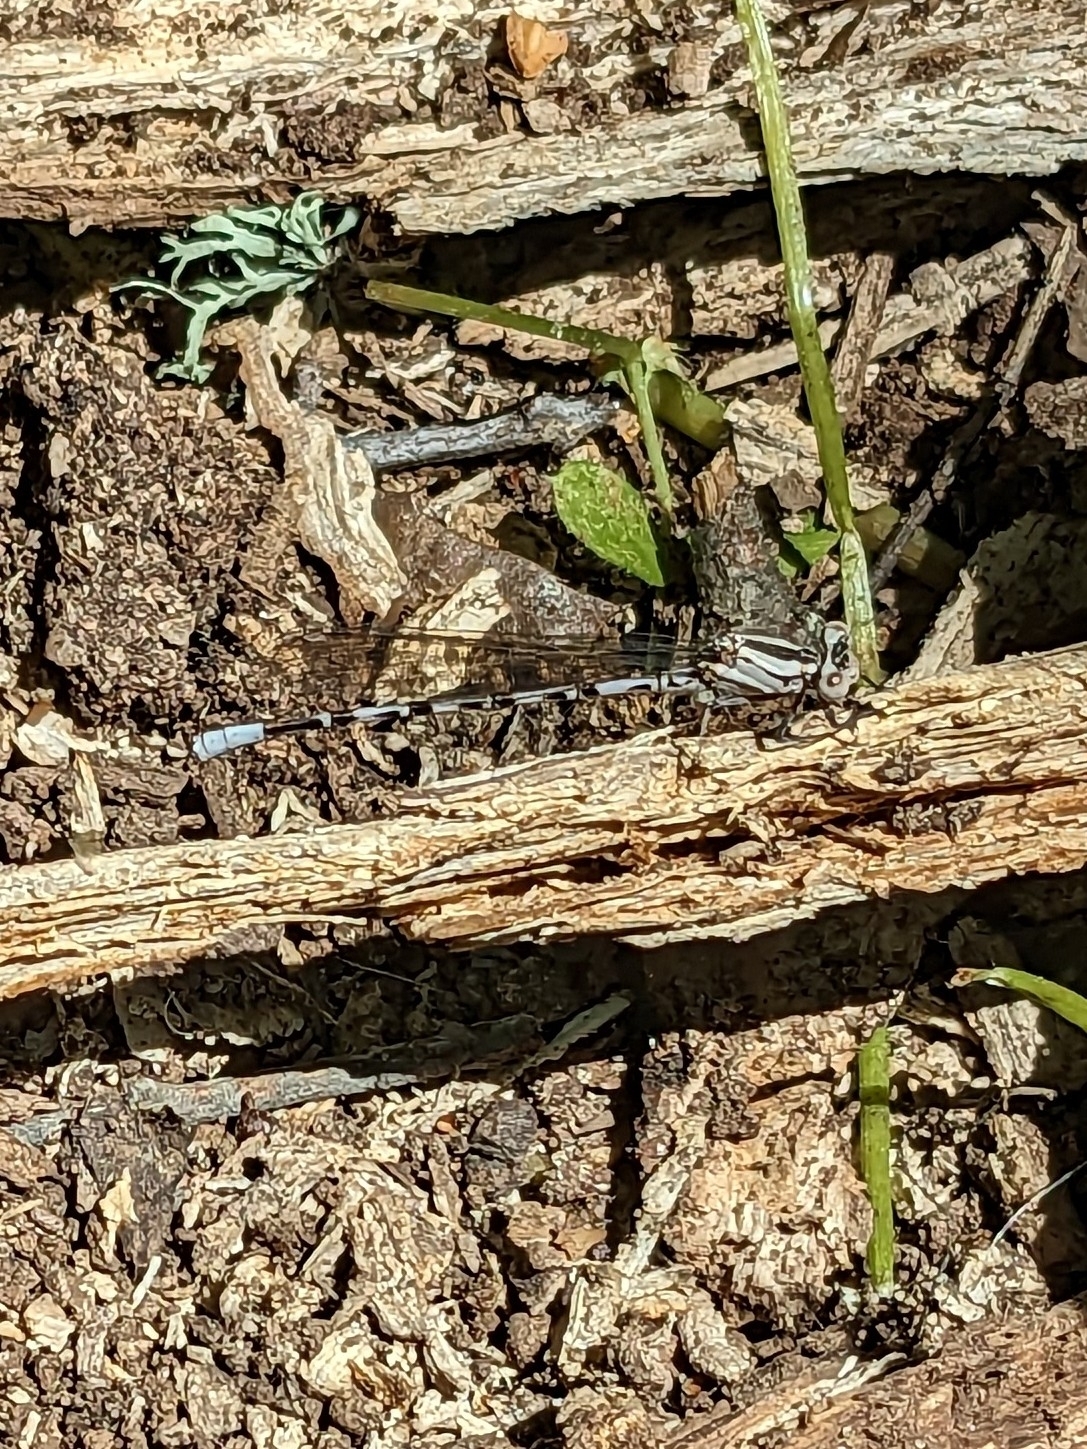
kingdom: Animalia
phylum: Arthropoda
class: Insecta
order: Odonata
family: Coenagrionidae
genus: Argia
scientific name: Argia vivida
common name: Vivid dancer
